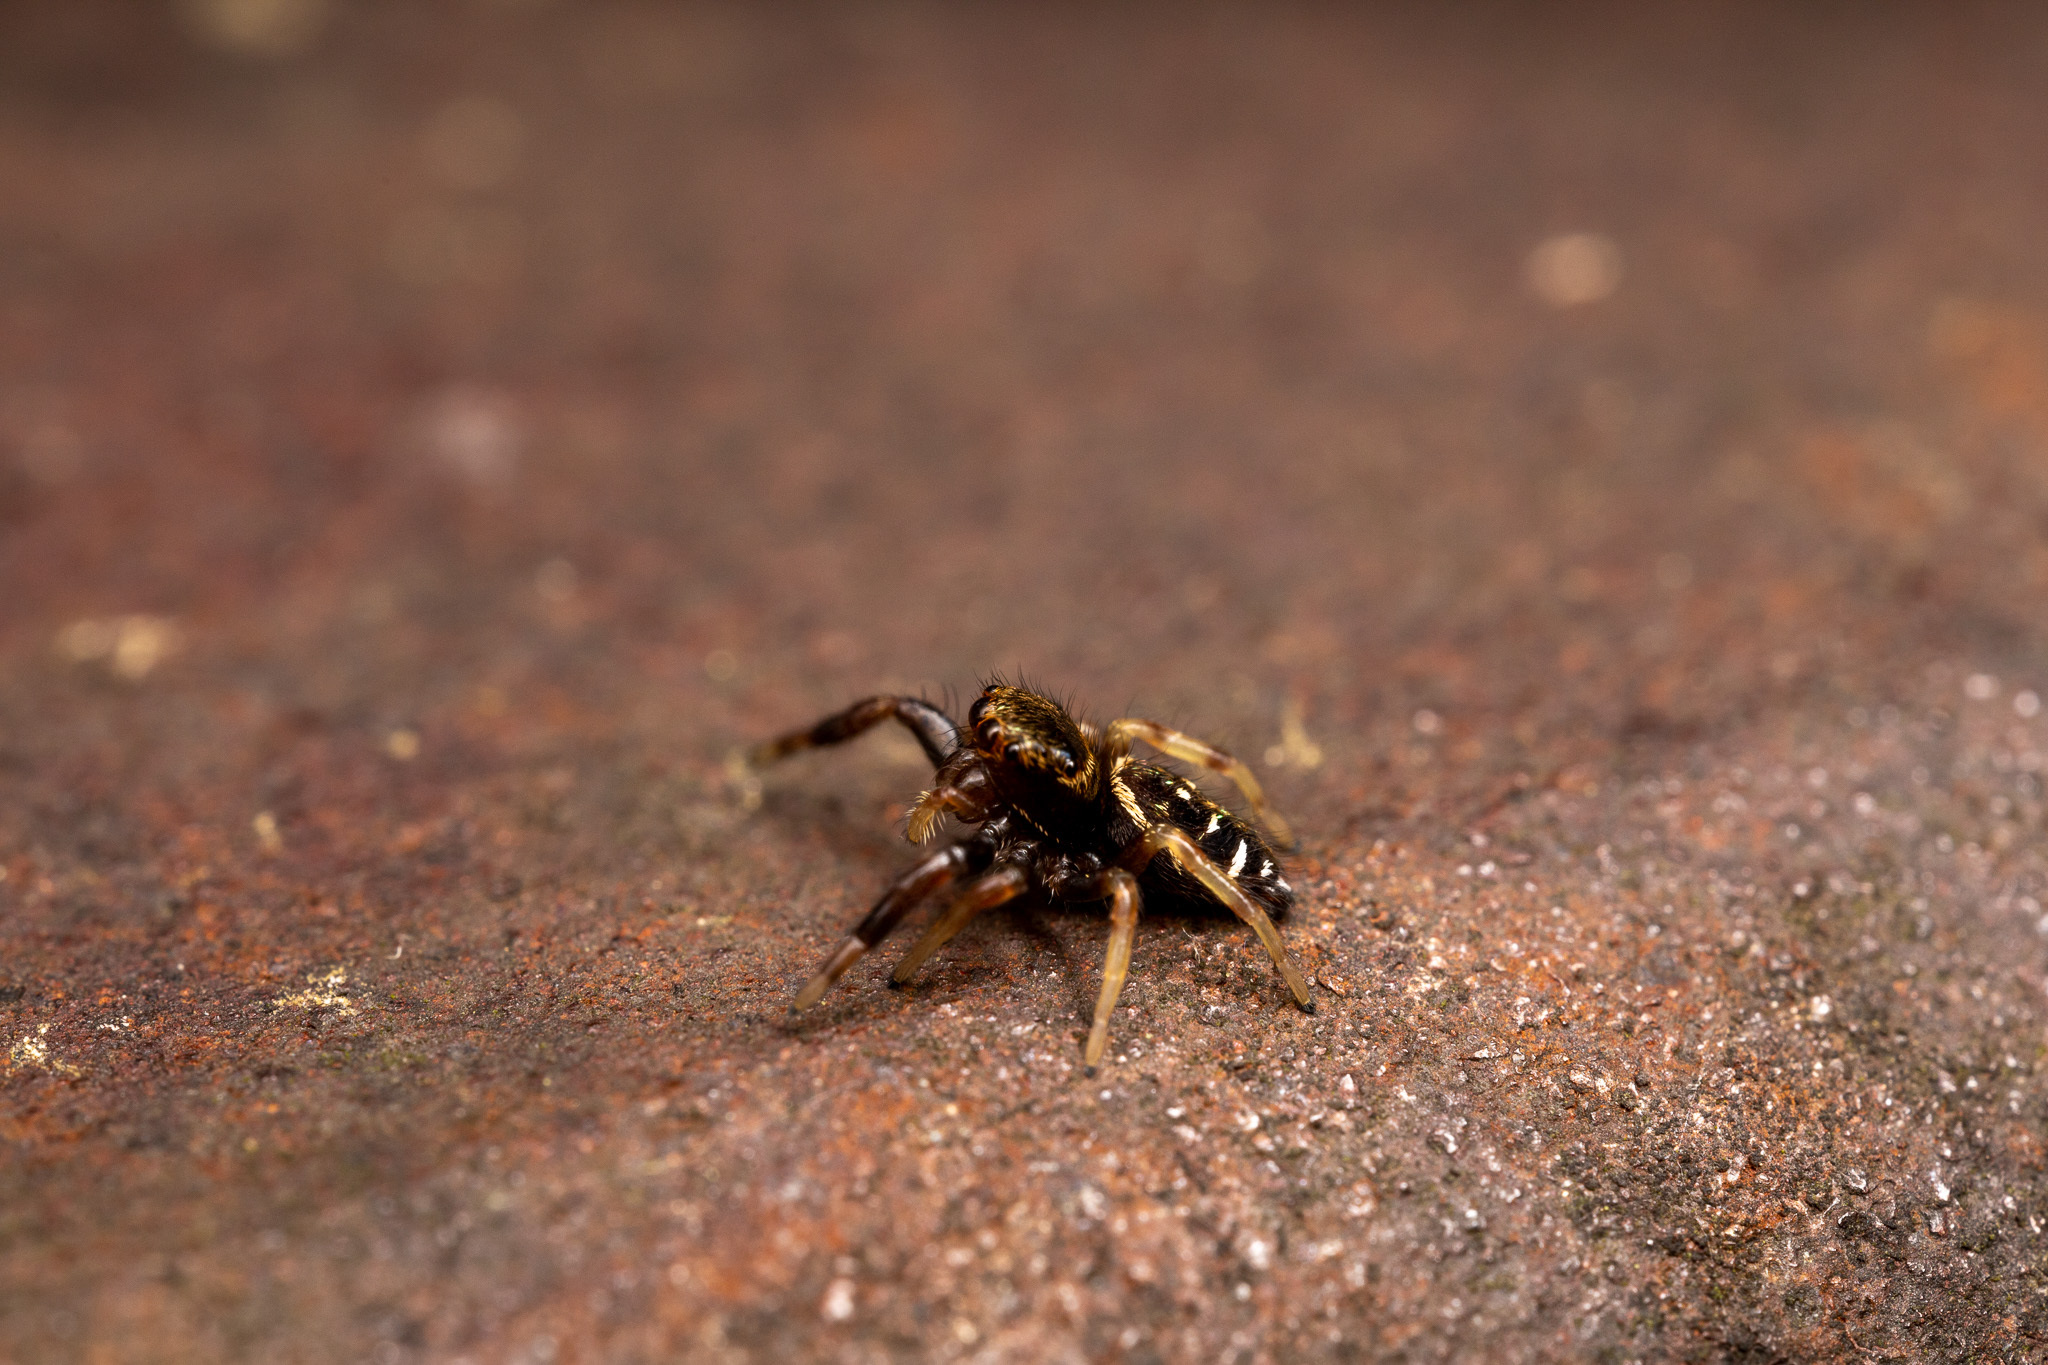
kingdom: Animalia
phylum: Arthropoda
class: Arachnida
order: Araneae
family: Salticidae
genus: Paraphidippus
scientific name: Paraphidippus aurantius
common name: Jumping spiders
